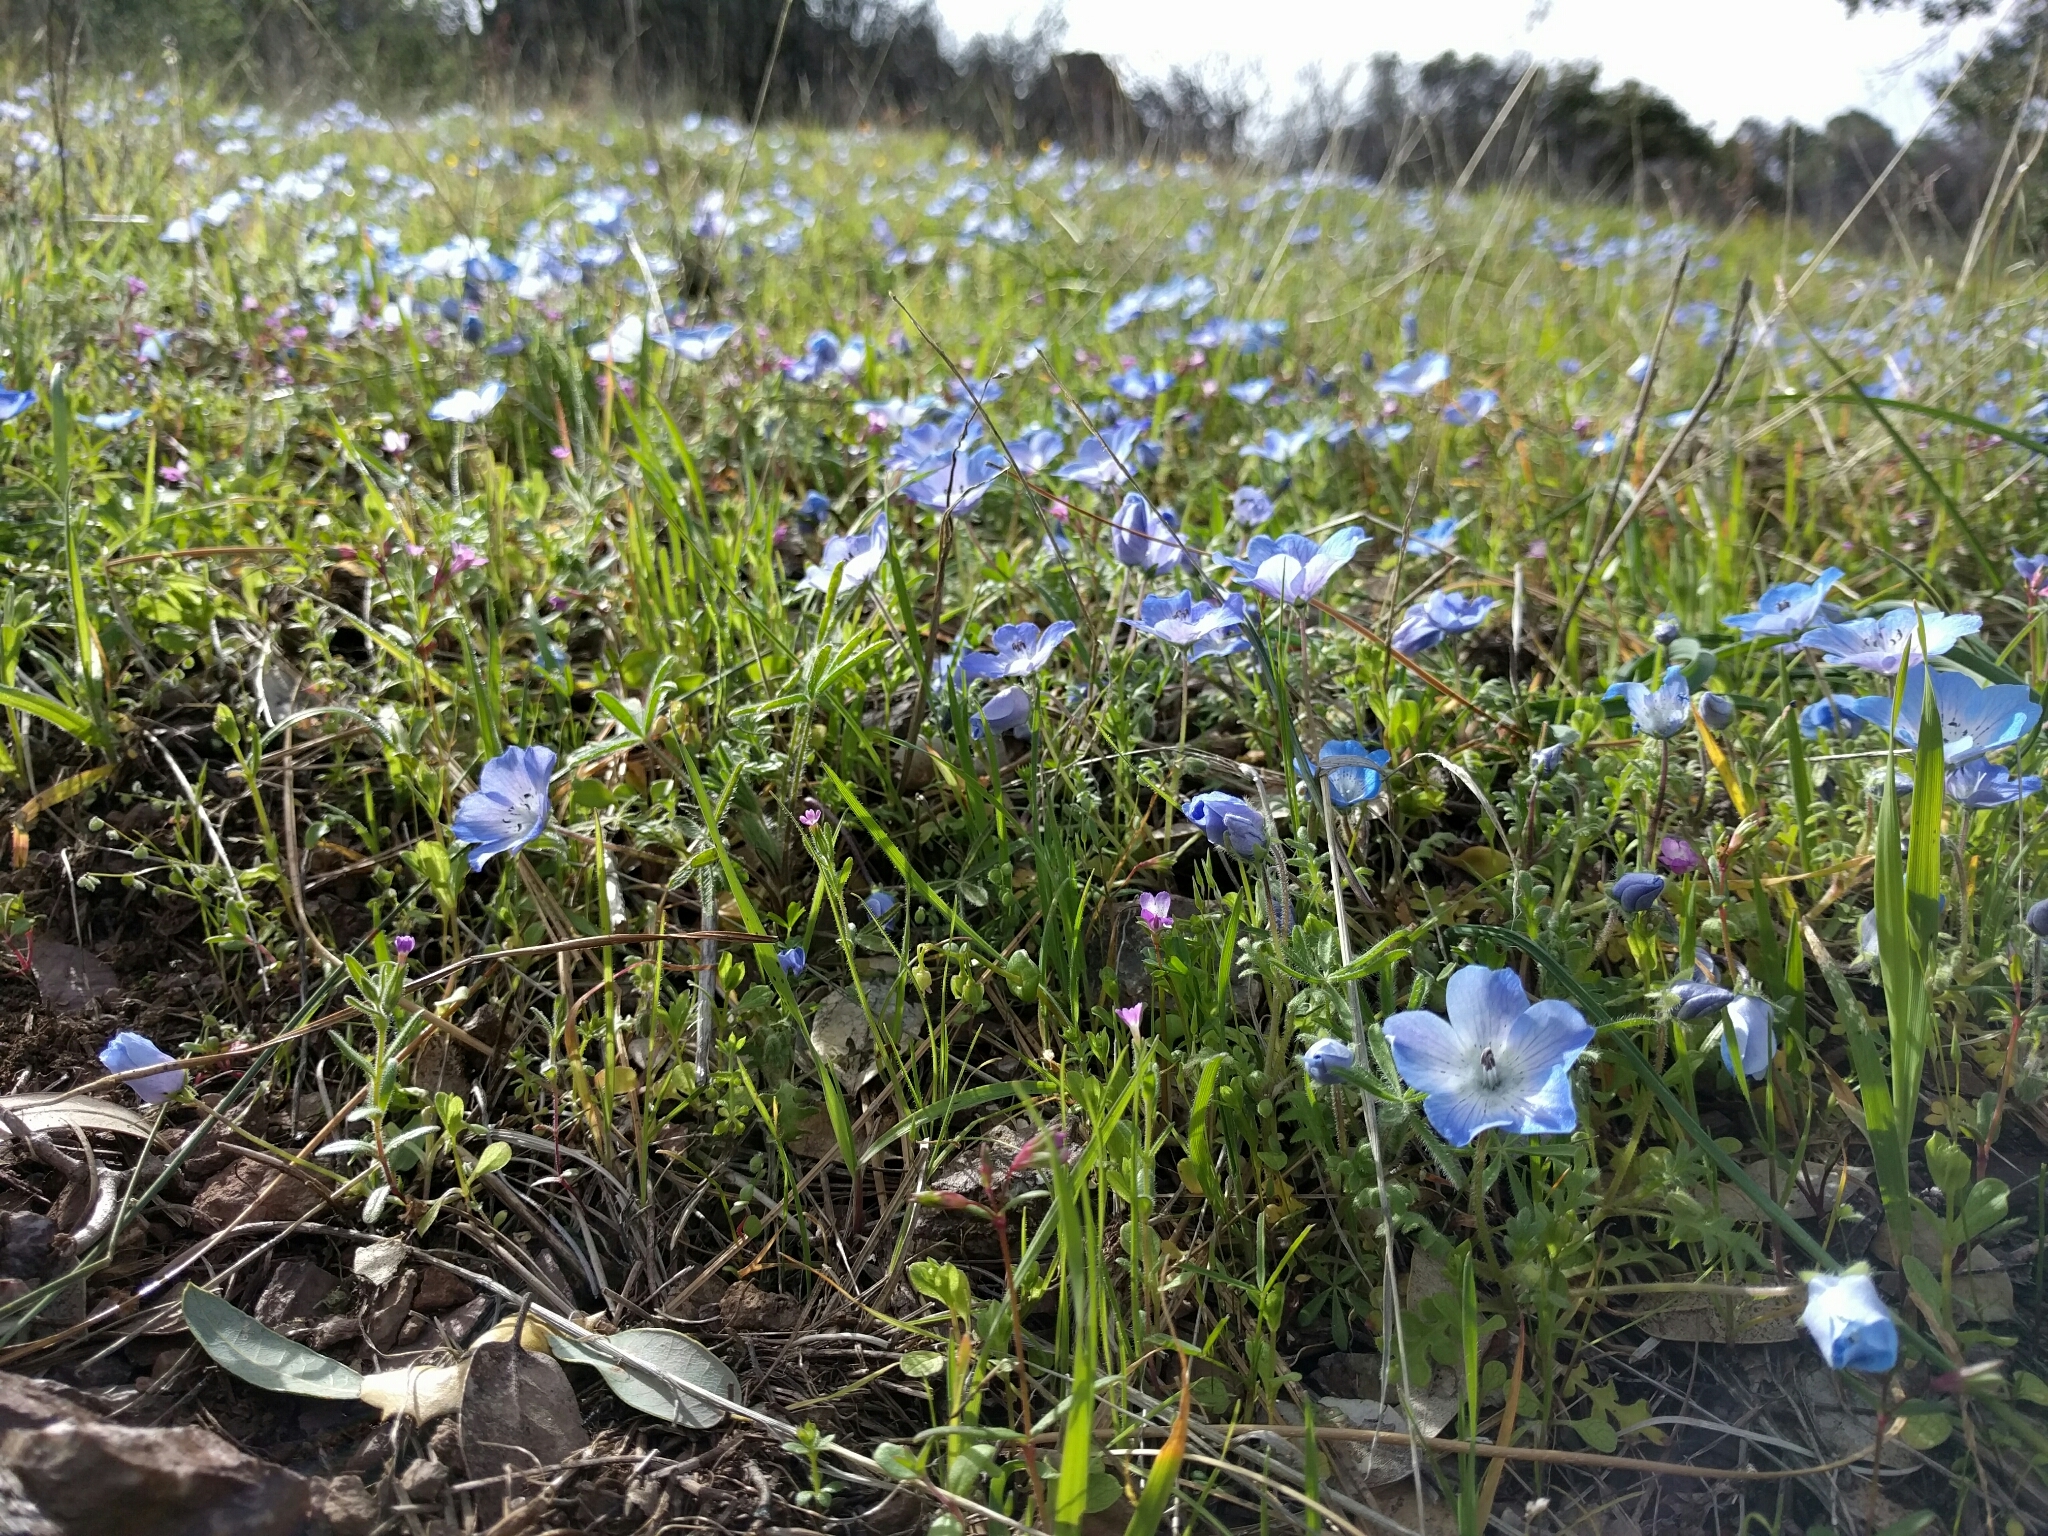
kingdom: Plantae
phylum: Tracheophyta
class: Magnoliopsida
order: Boraginales
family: Hydrophyllaceae
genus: Nemophila
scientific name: Nemophila menziesii
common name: Baby's-blue-eyes
